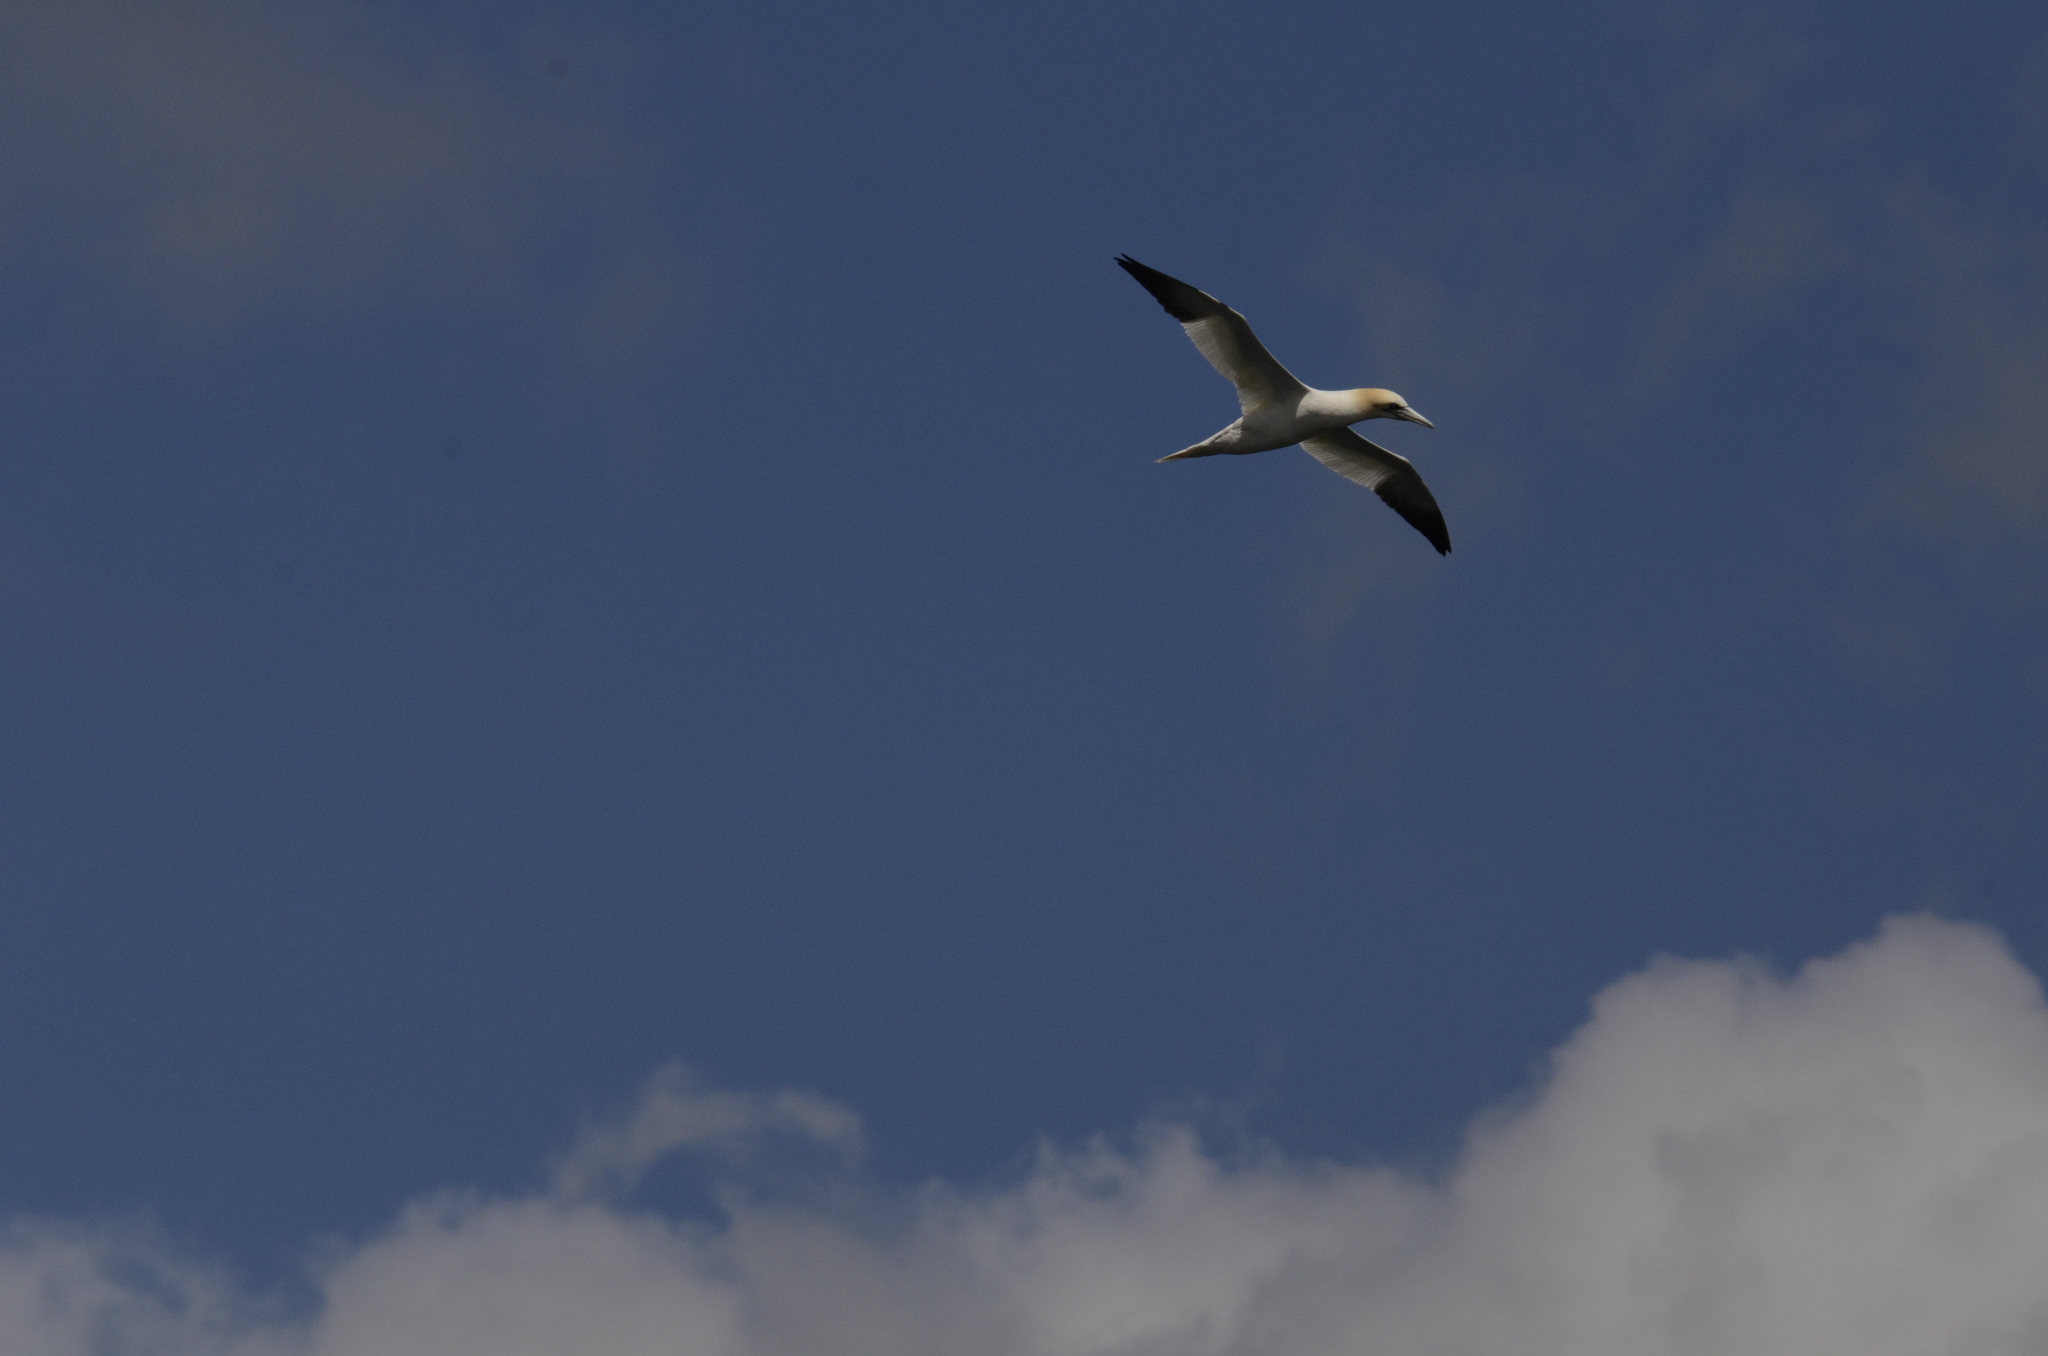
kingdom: Animalia
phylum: Chordata
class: Aves
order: Suliformes
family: Sulidae
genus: Morus
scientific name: Morus bassanus
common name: Northern gannet
